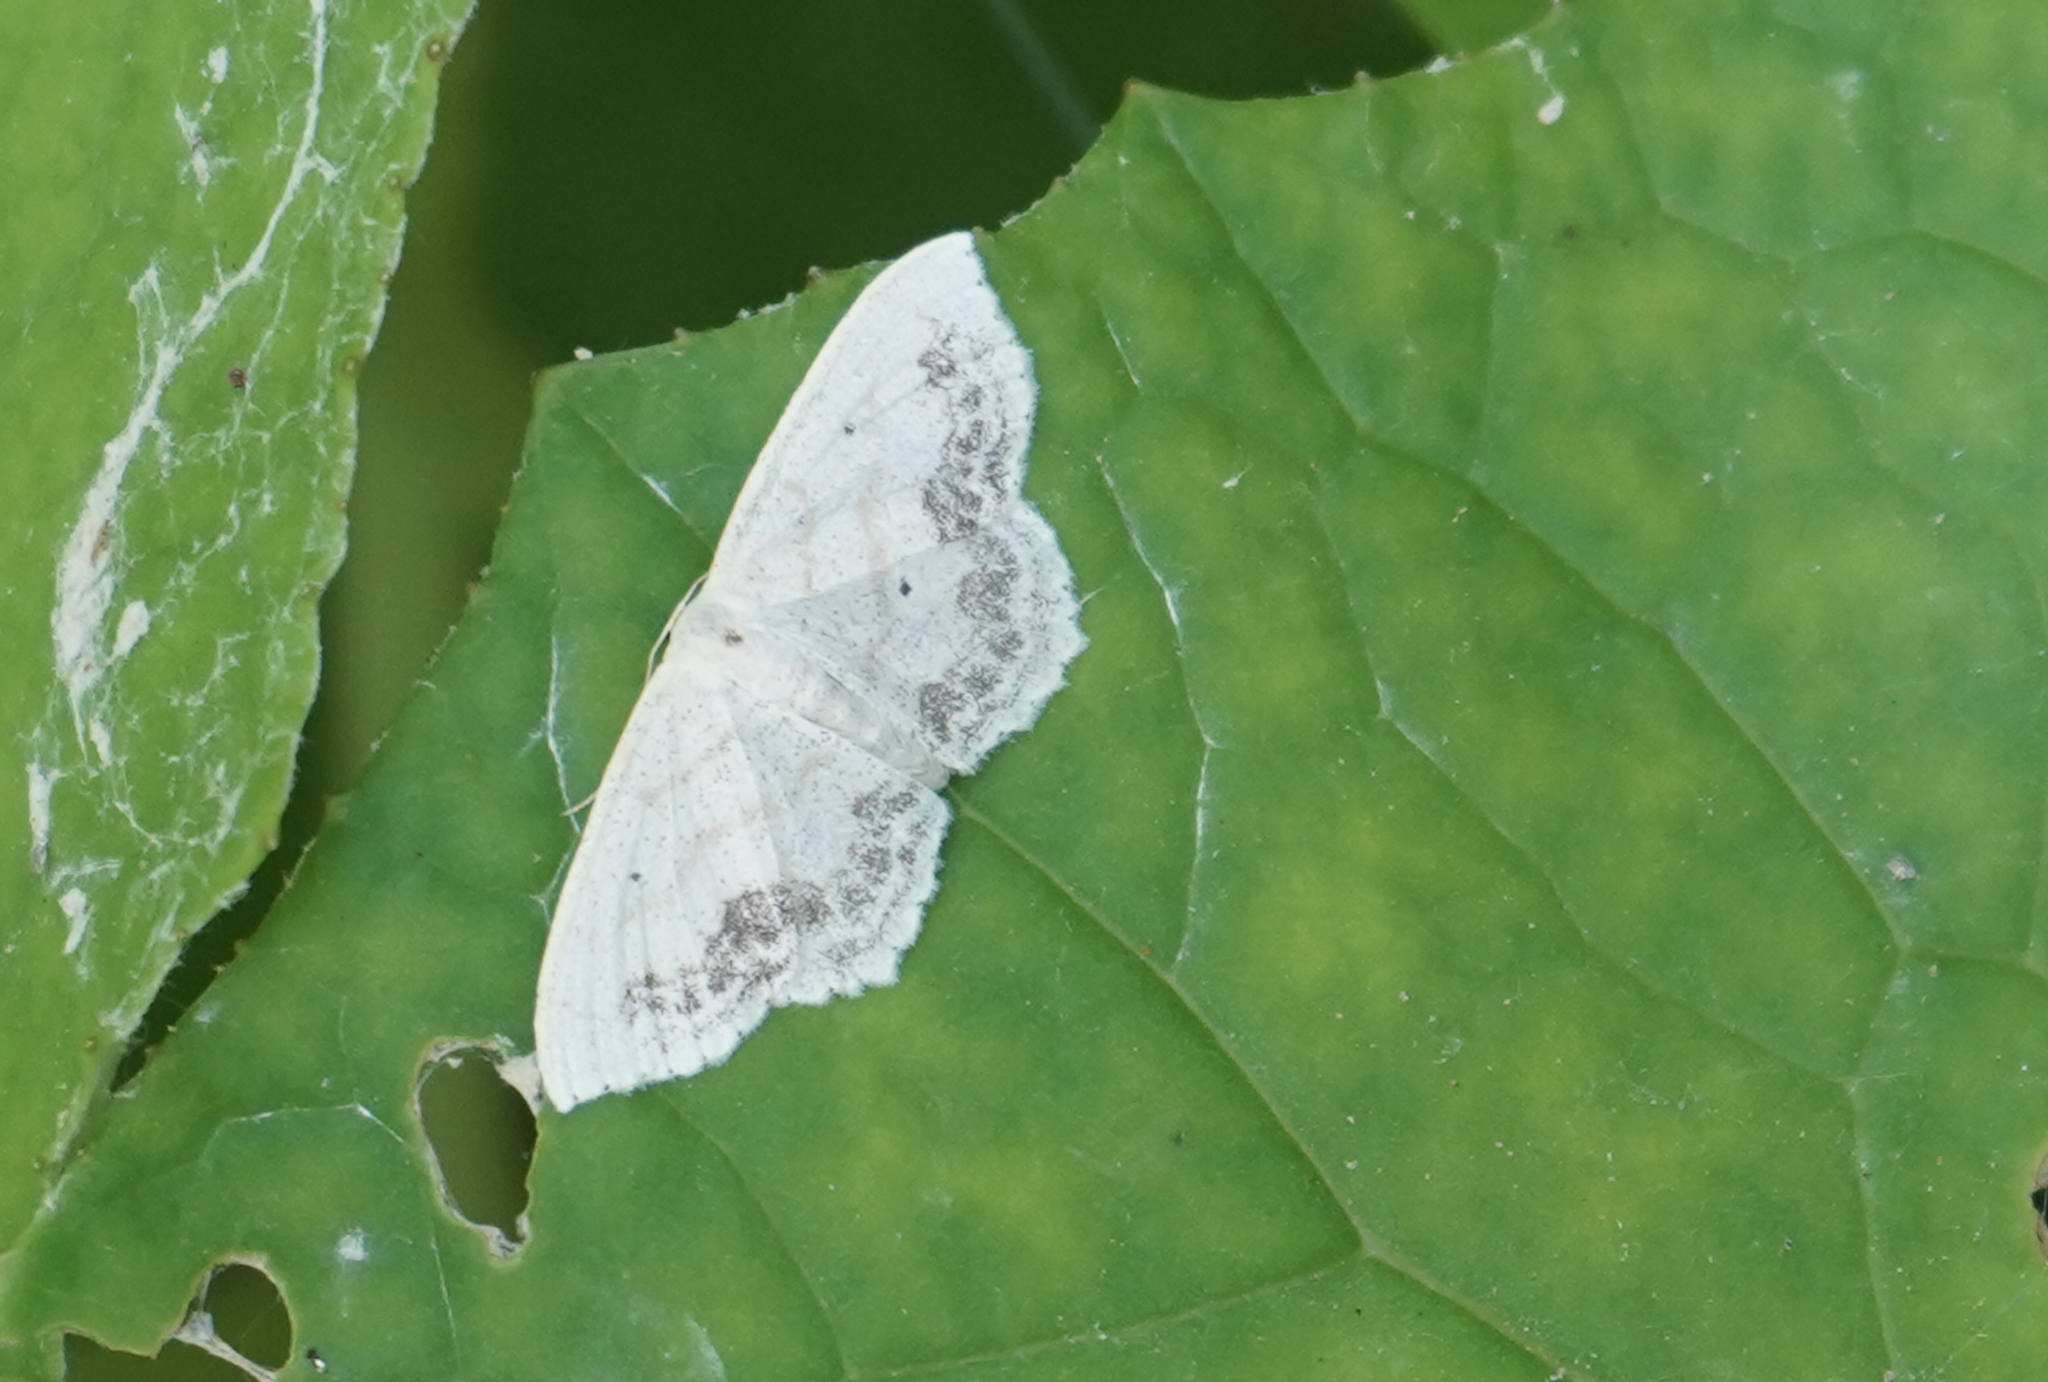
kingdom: Animalia
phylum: Arthropoda
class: Insecta
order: Lepidoptera
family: Geometridae
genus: Scopula
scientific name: Scopula limboundata
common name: Large lace border
